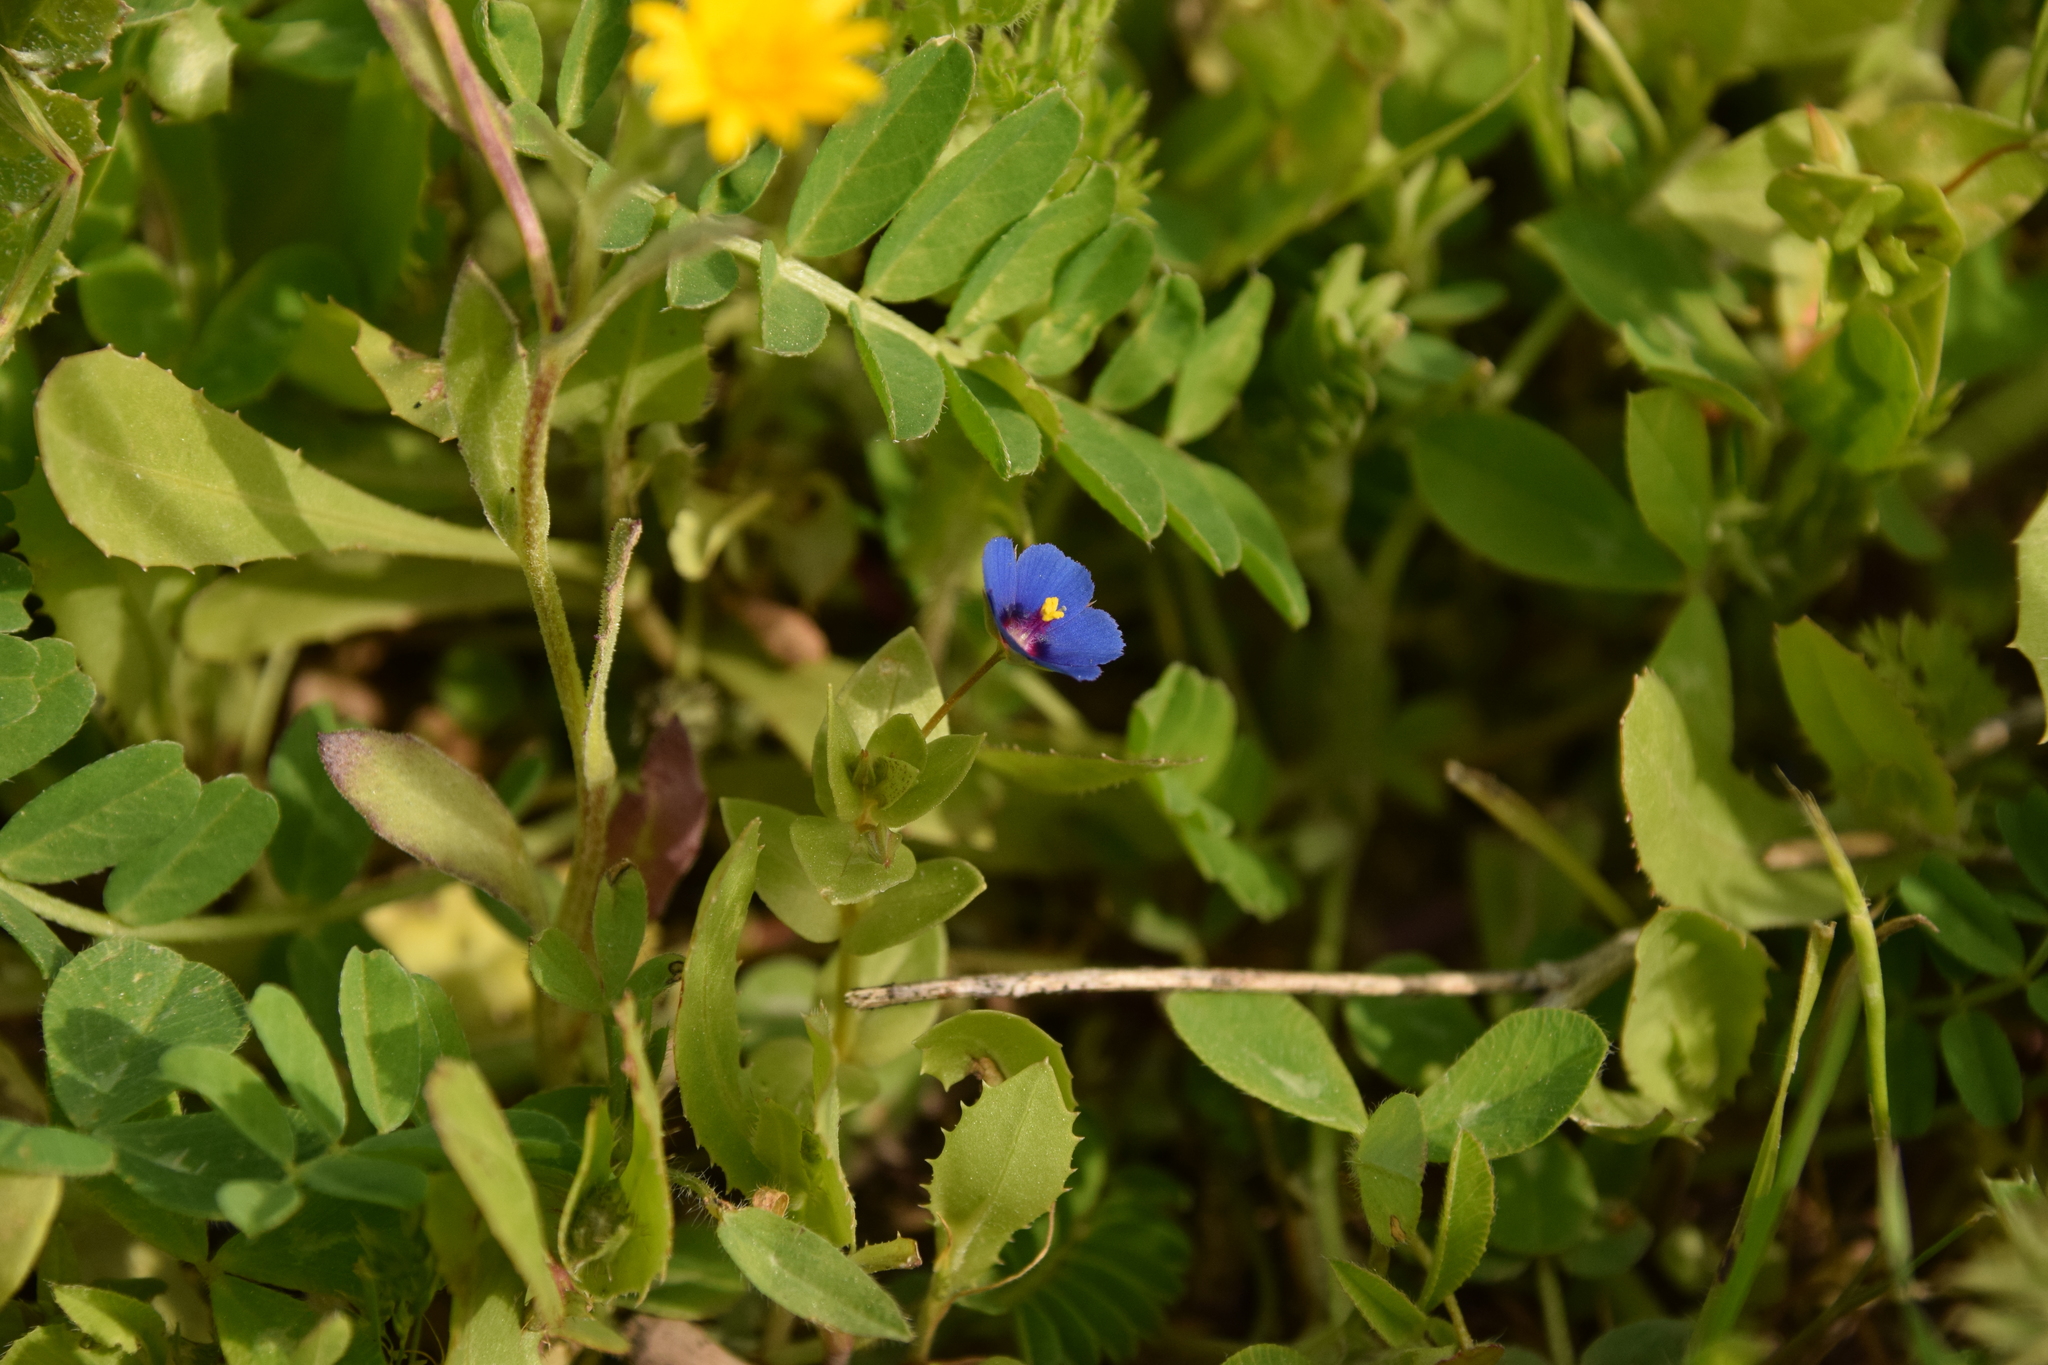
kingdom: Plantae
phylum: Tracheophyta
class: Magnoliopsida
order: Ericales
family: Primulaceae
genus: Lysimachia
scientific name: Lysimachia arvensis
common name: Scarlet pimpernel
